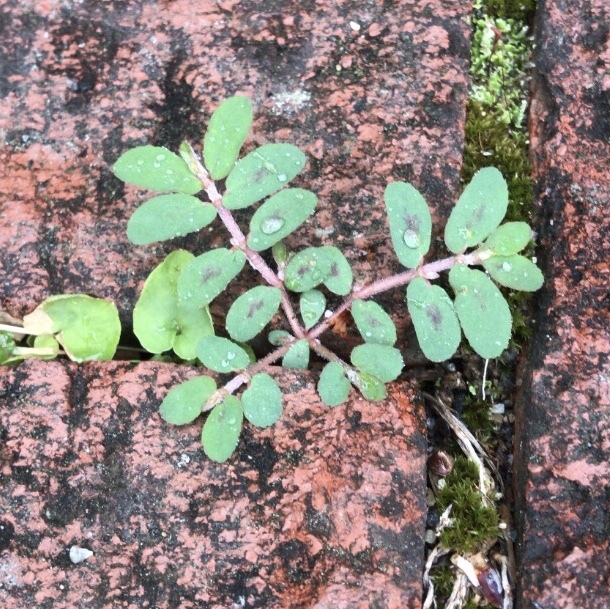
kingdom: Plantae
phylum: Tracheophyta
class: Magnoliopsida
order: Malpighiales
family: Euphorbiaceae
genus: Euphorbia
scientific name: Euphorbia maculata
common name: Spotted spurge
